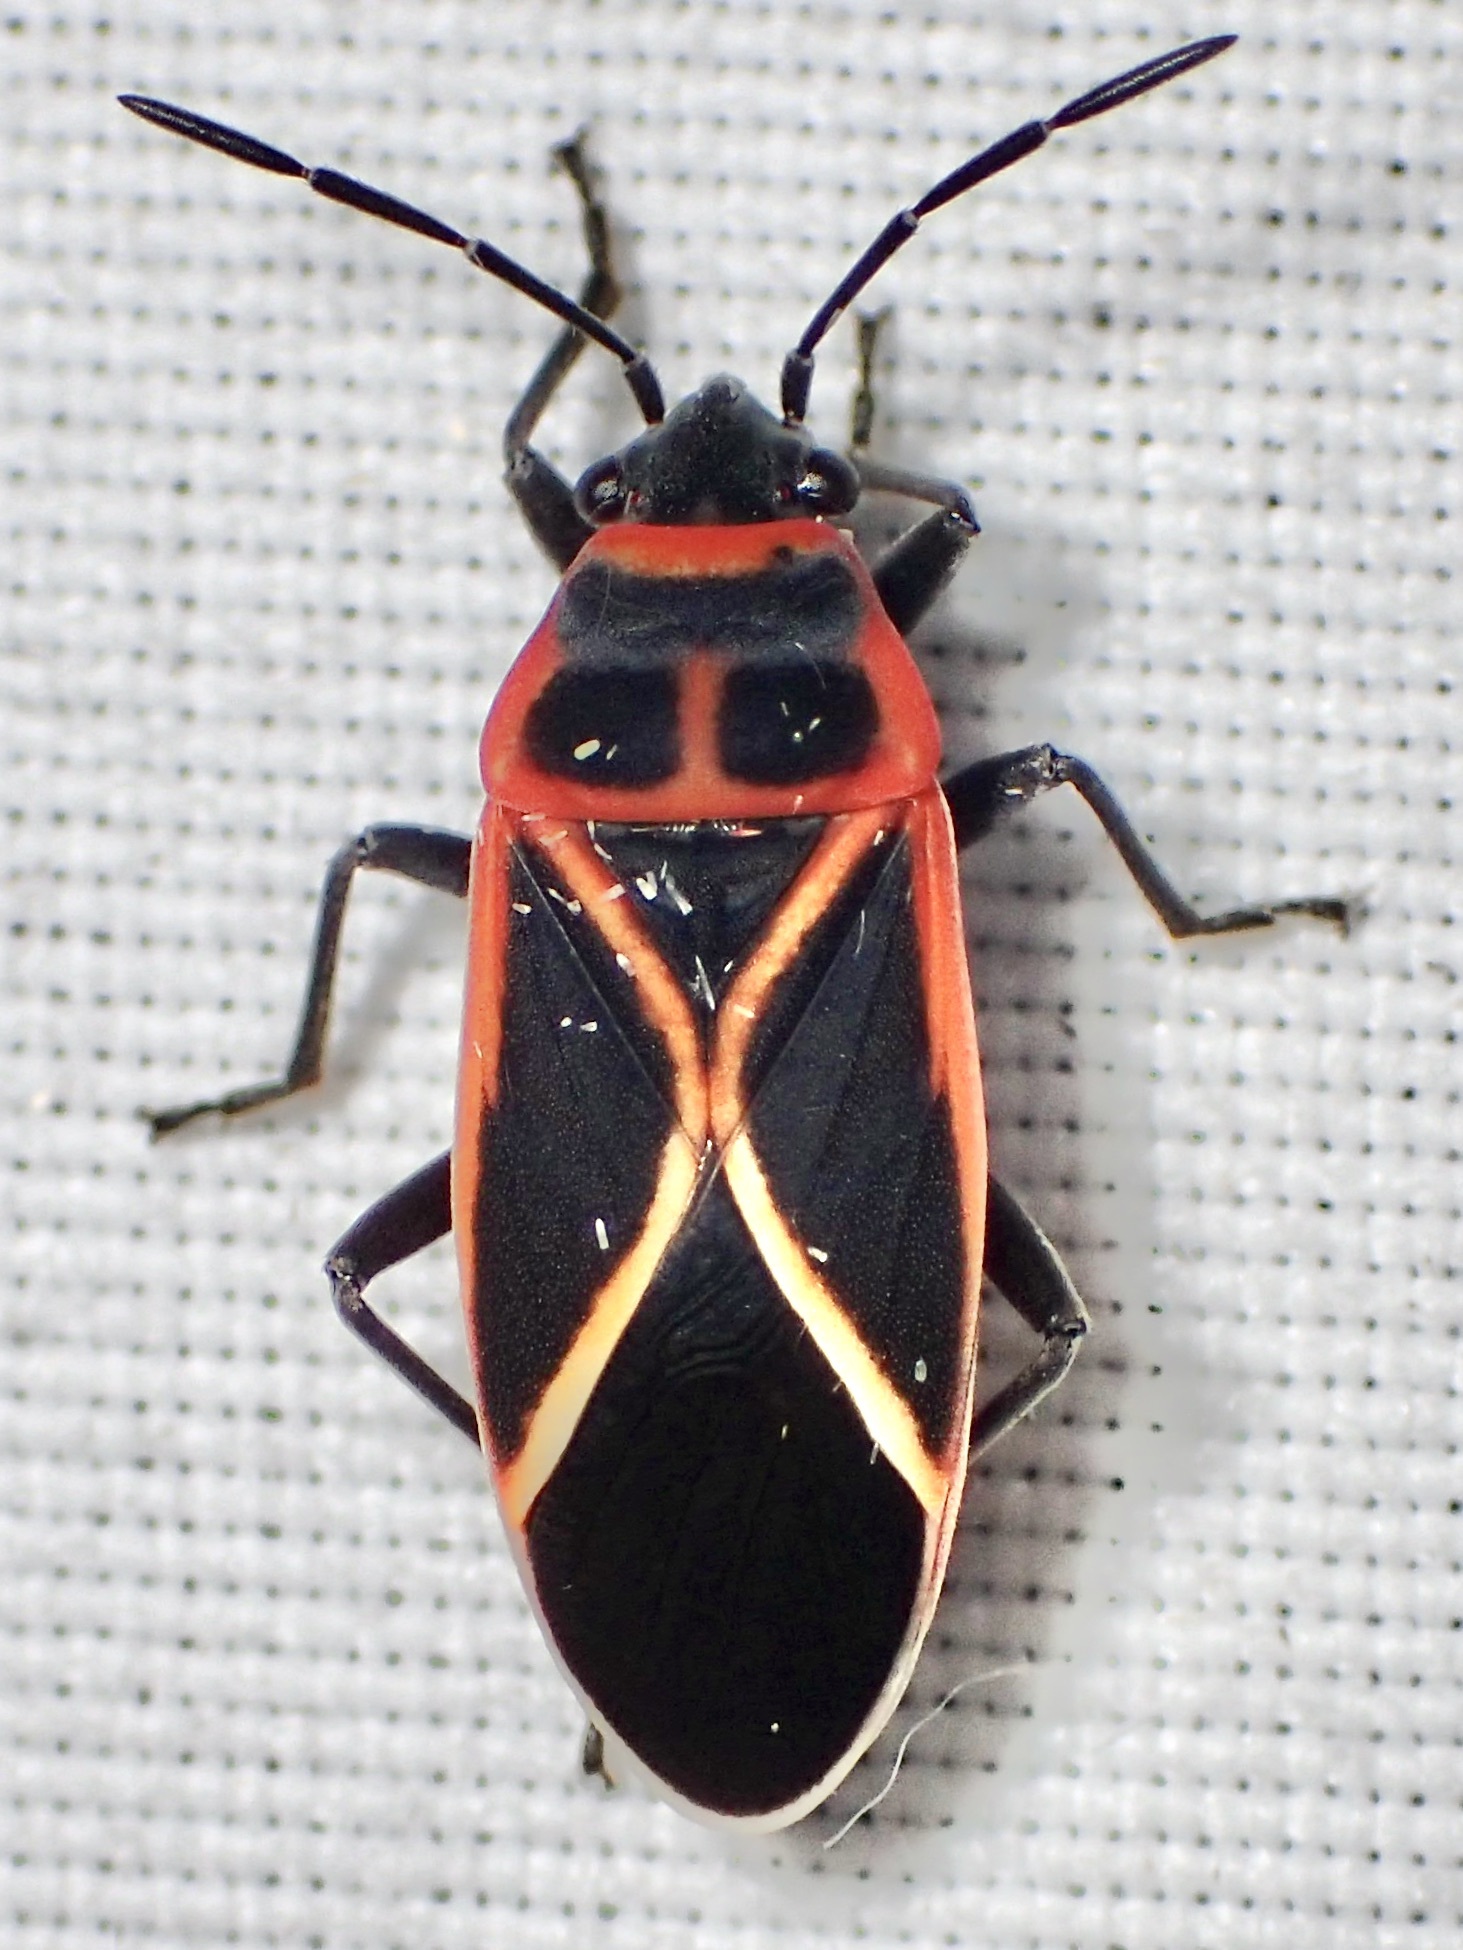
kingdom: Animalia
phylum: Arthropoda
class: Insecta
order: Hemiptera
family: Lygaeidae
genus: Ochrostomus
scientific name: Ochrostomus uhleri
